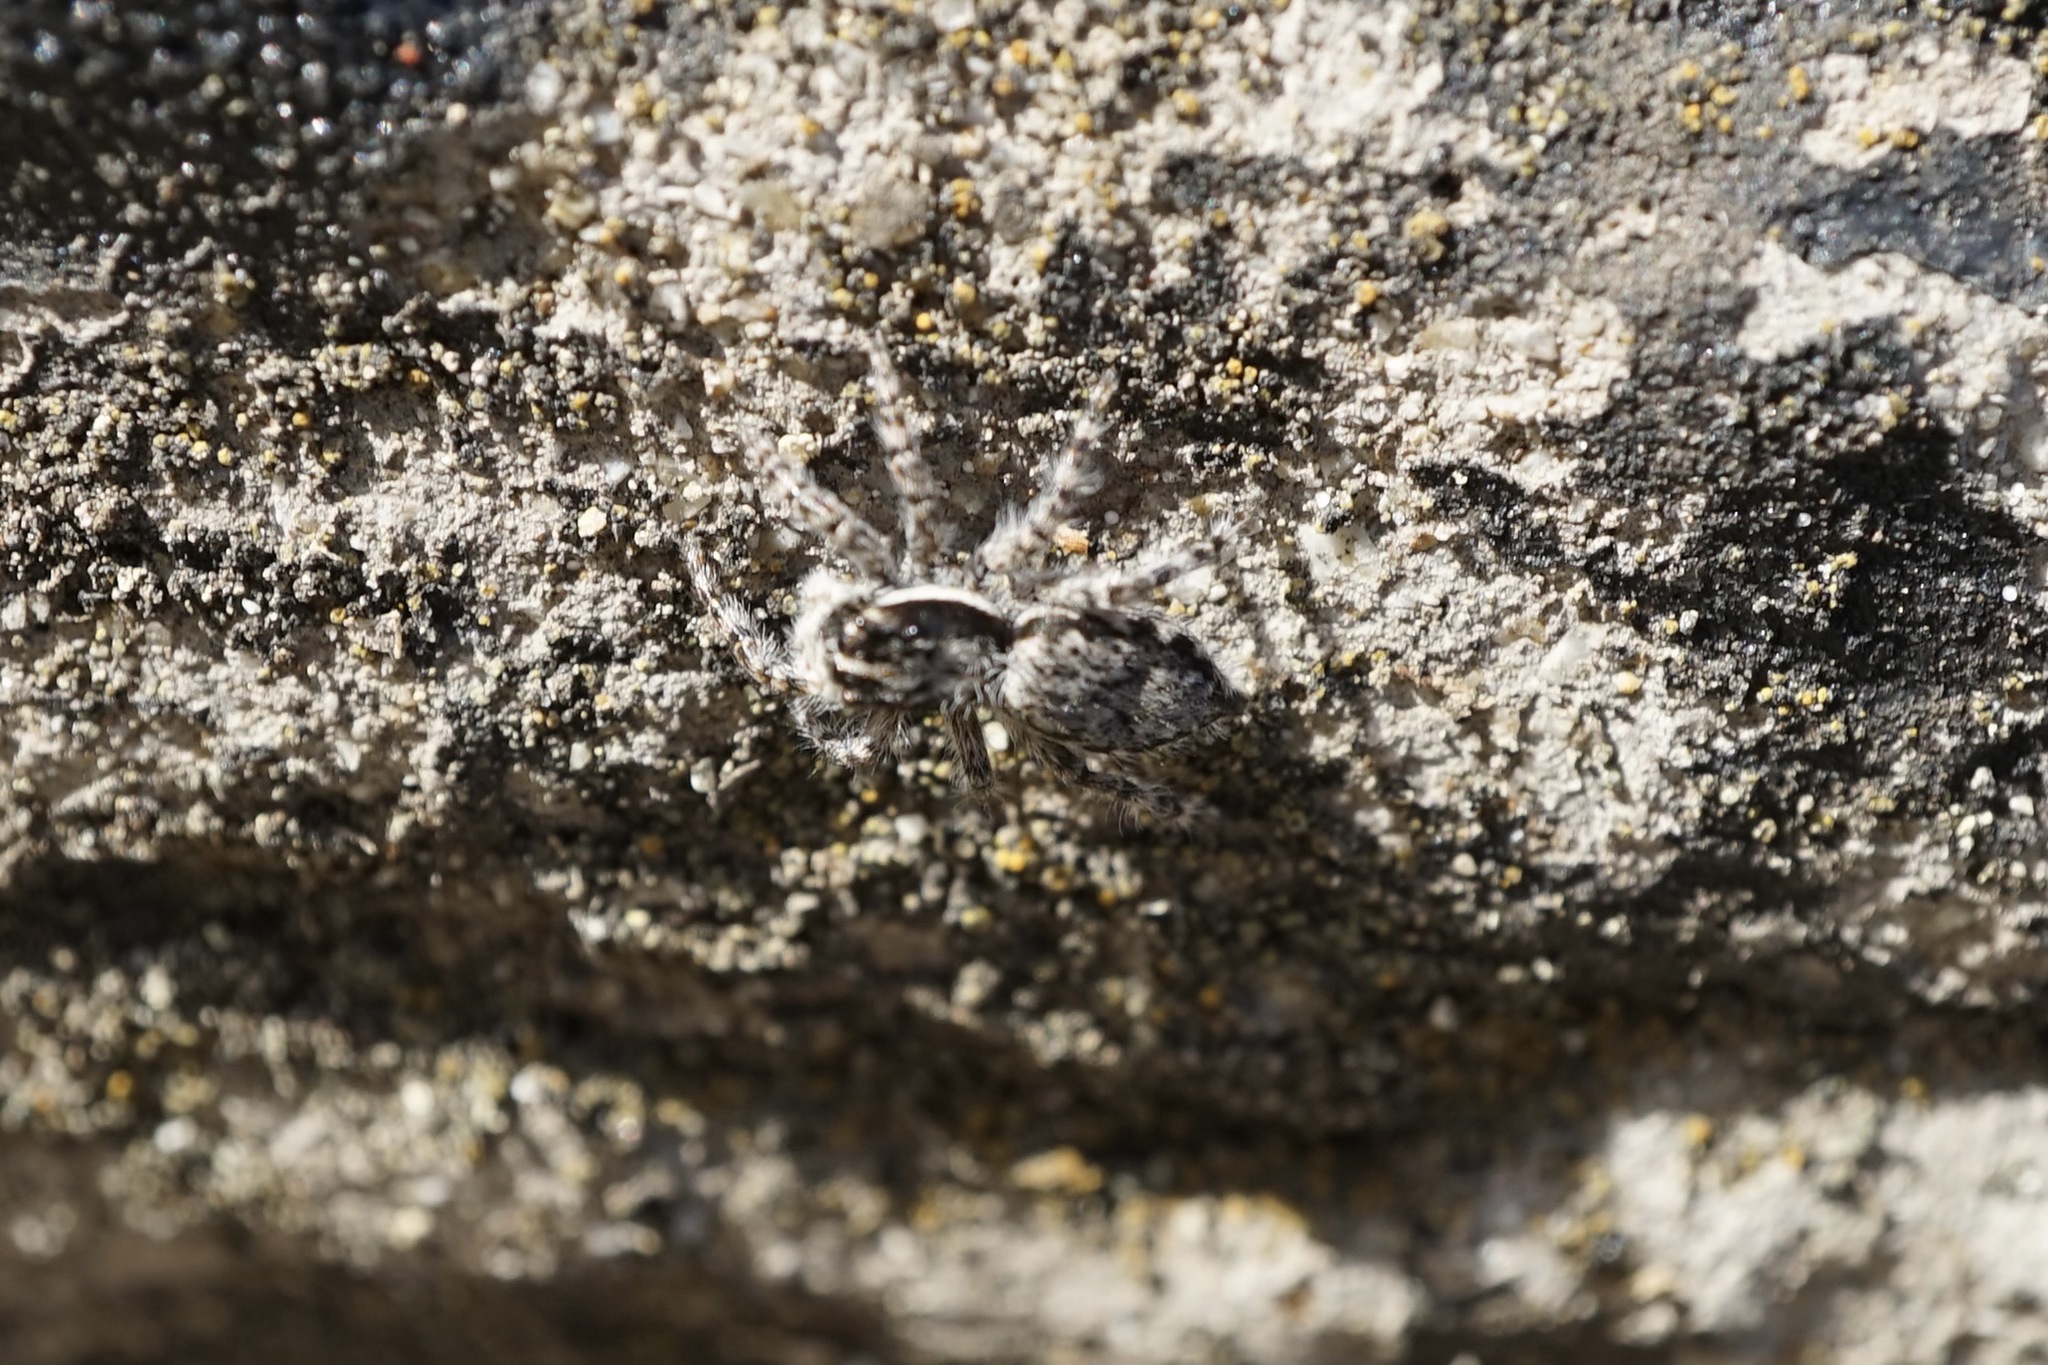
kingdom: Animalia
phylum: Arthropoda
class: Arachnida
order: Araneae
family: Salticidae
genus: Menemerus
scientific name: Menemerus fulvus
